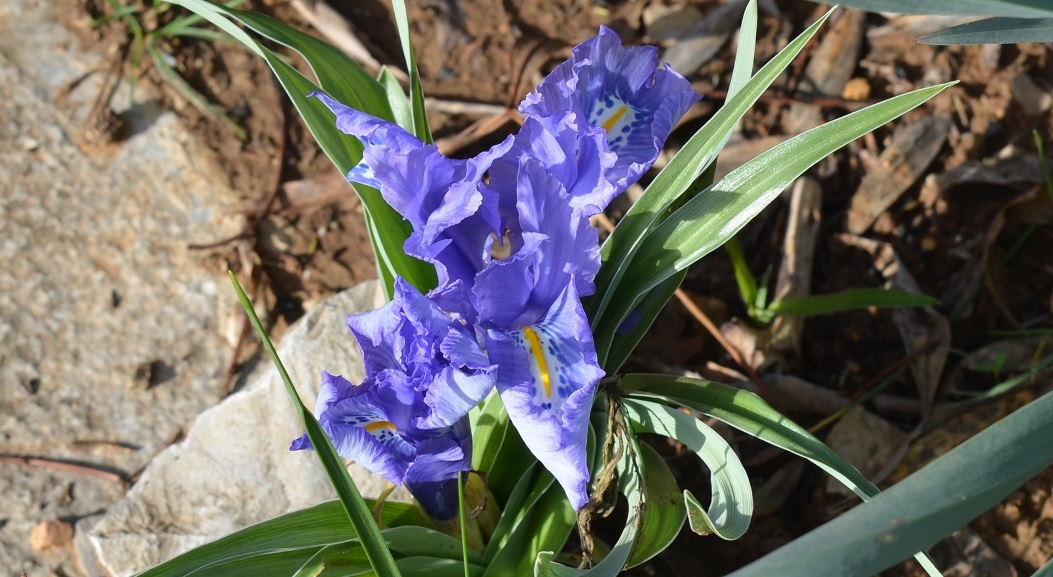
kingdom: Plantae
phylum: Tracheophyta
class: Liliopsida
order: Asparagales
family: Iridaceae
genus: Iris
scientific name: Iris planifolia
